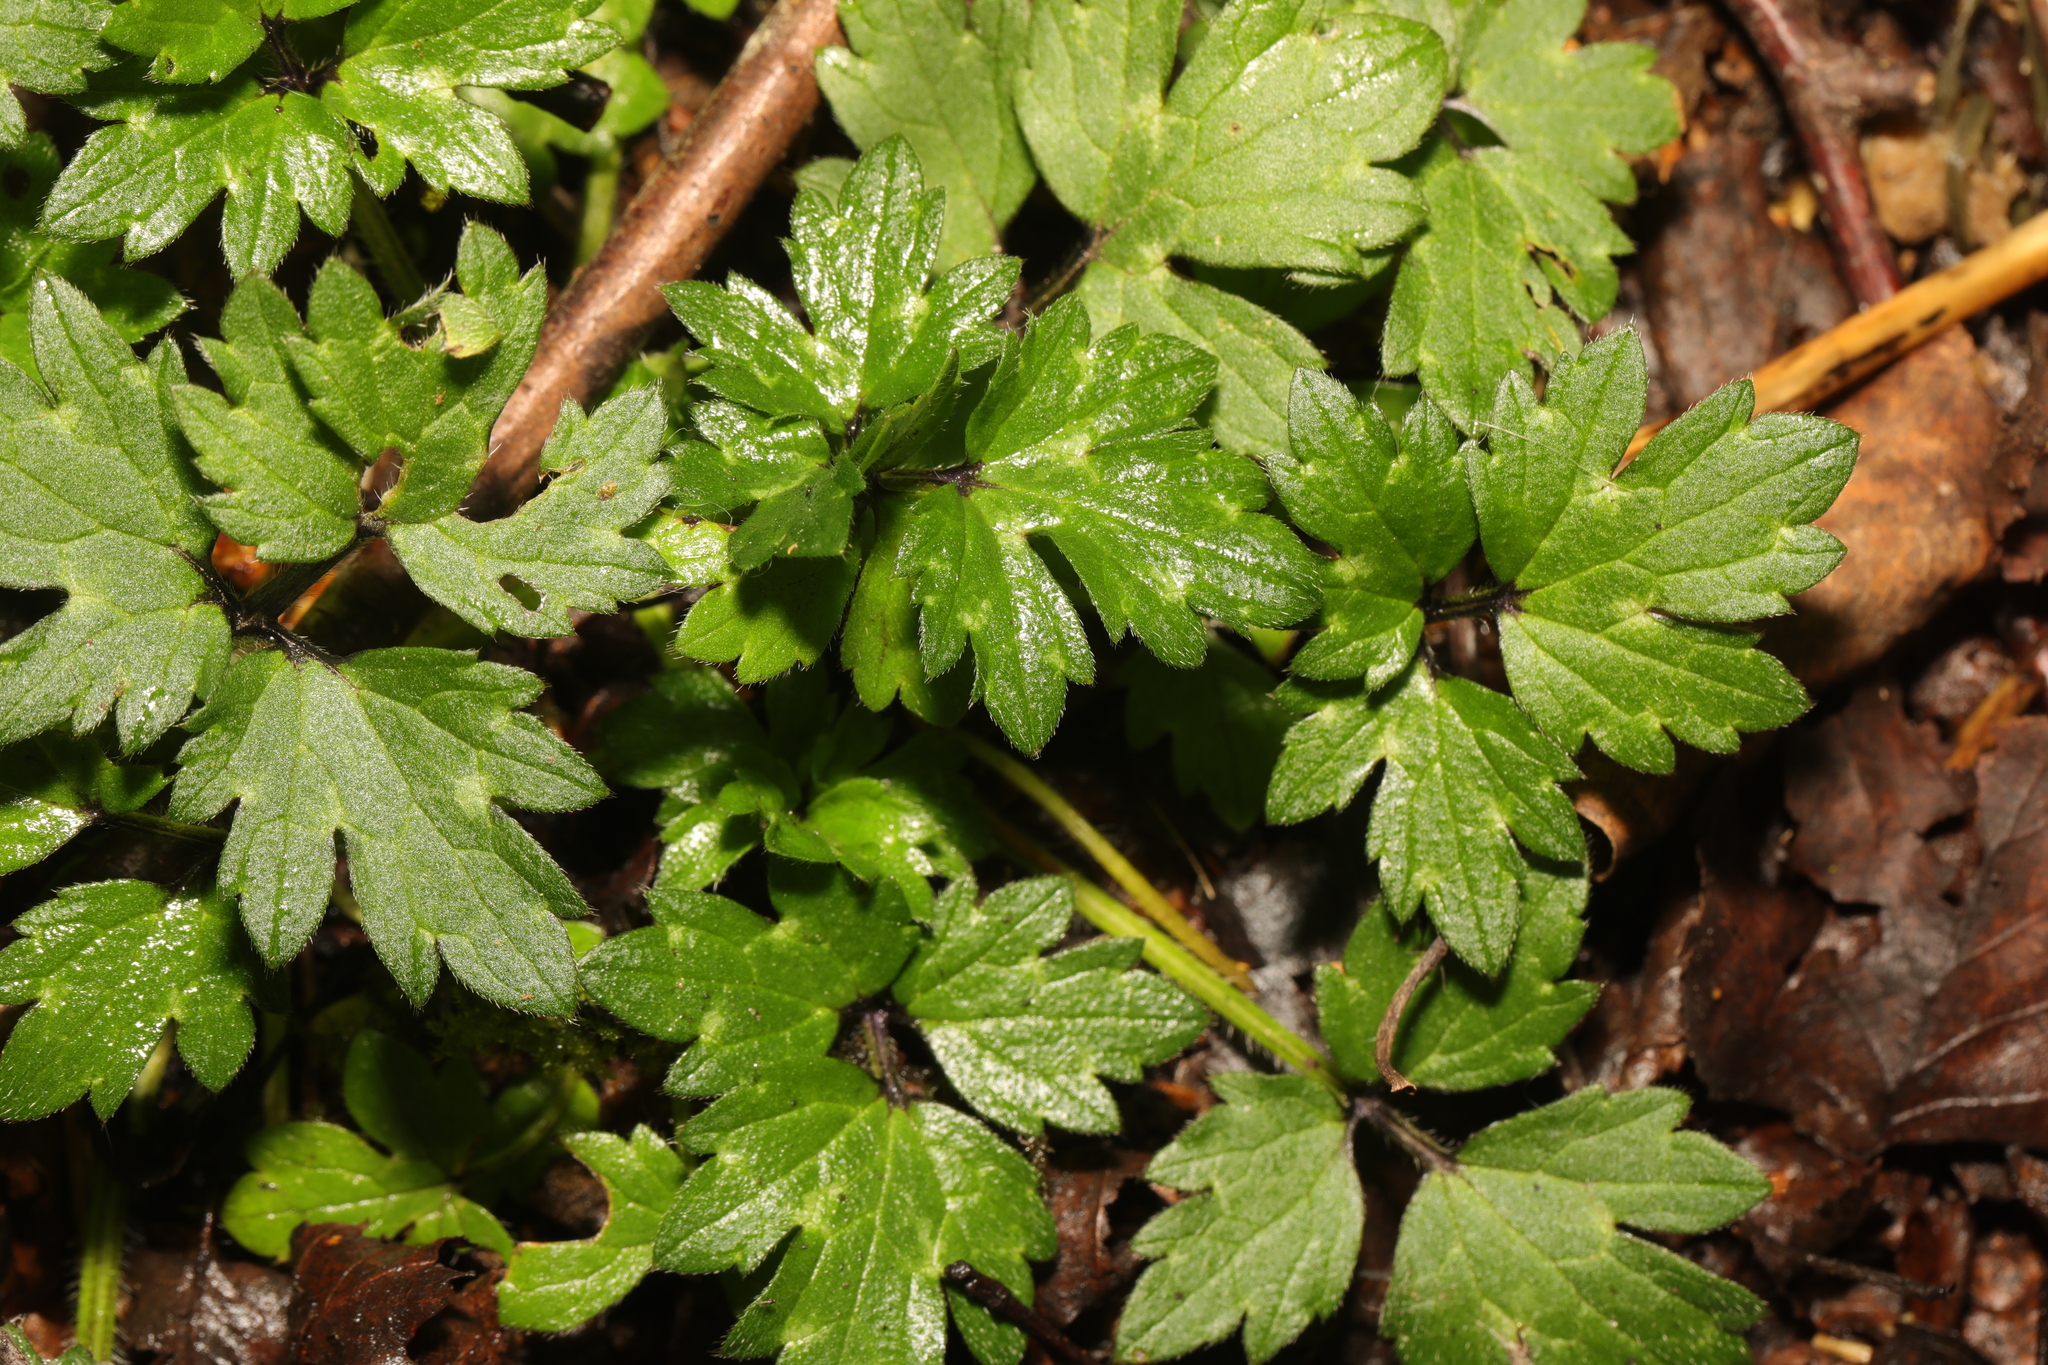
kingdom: Plantae
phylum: Tracheophyta
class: Magnoliopsida
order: Ranunculales
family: Ranunculaceae
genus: Ranunculus
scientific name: Ranunculus repens
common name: Creeping buttercup
